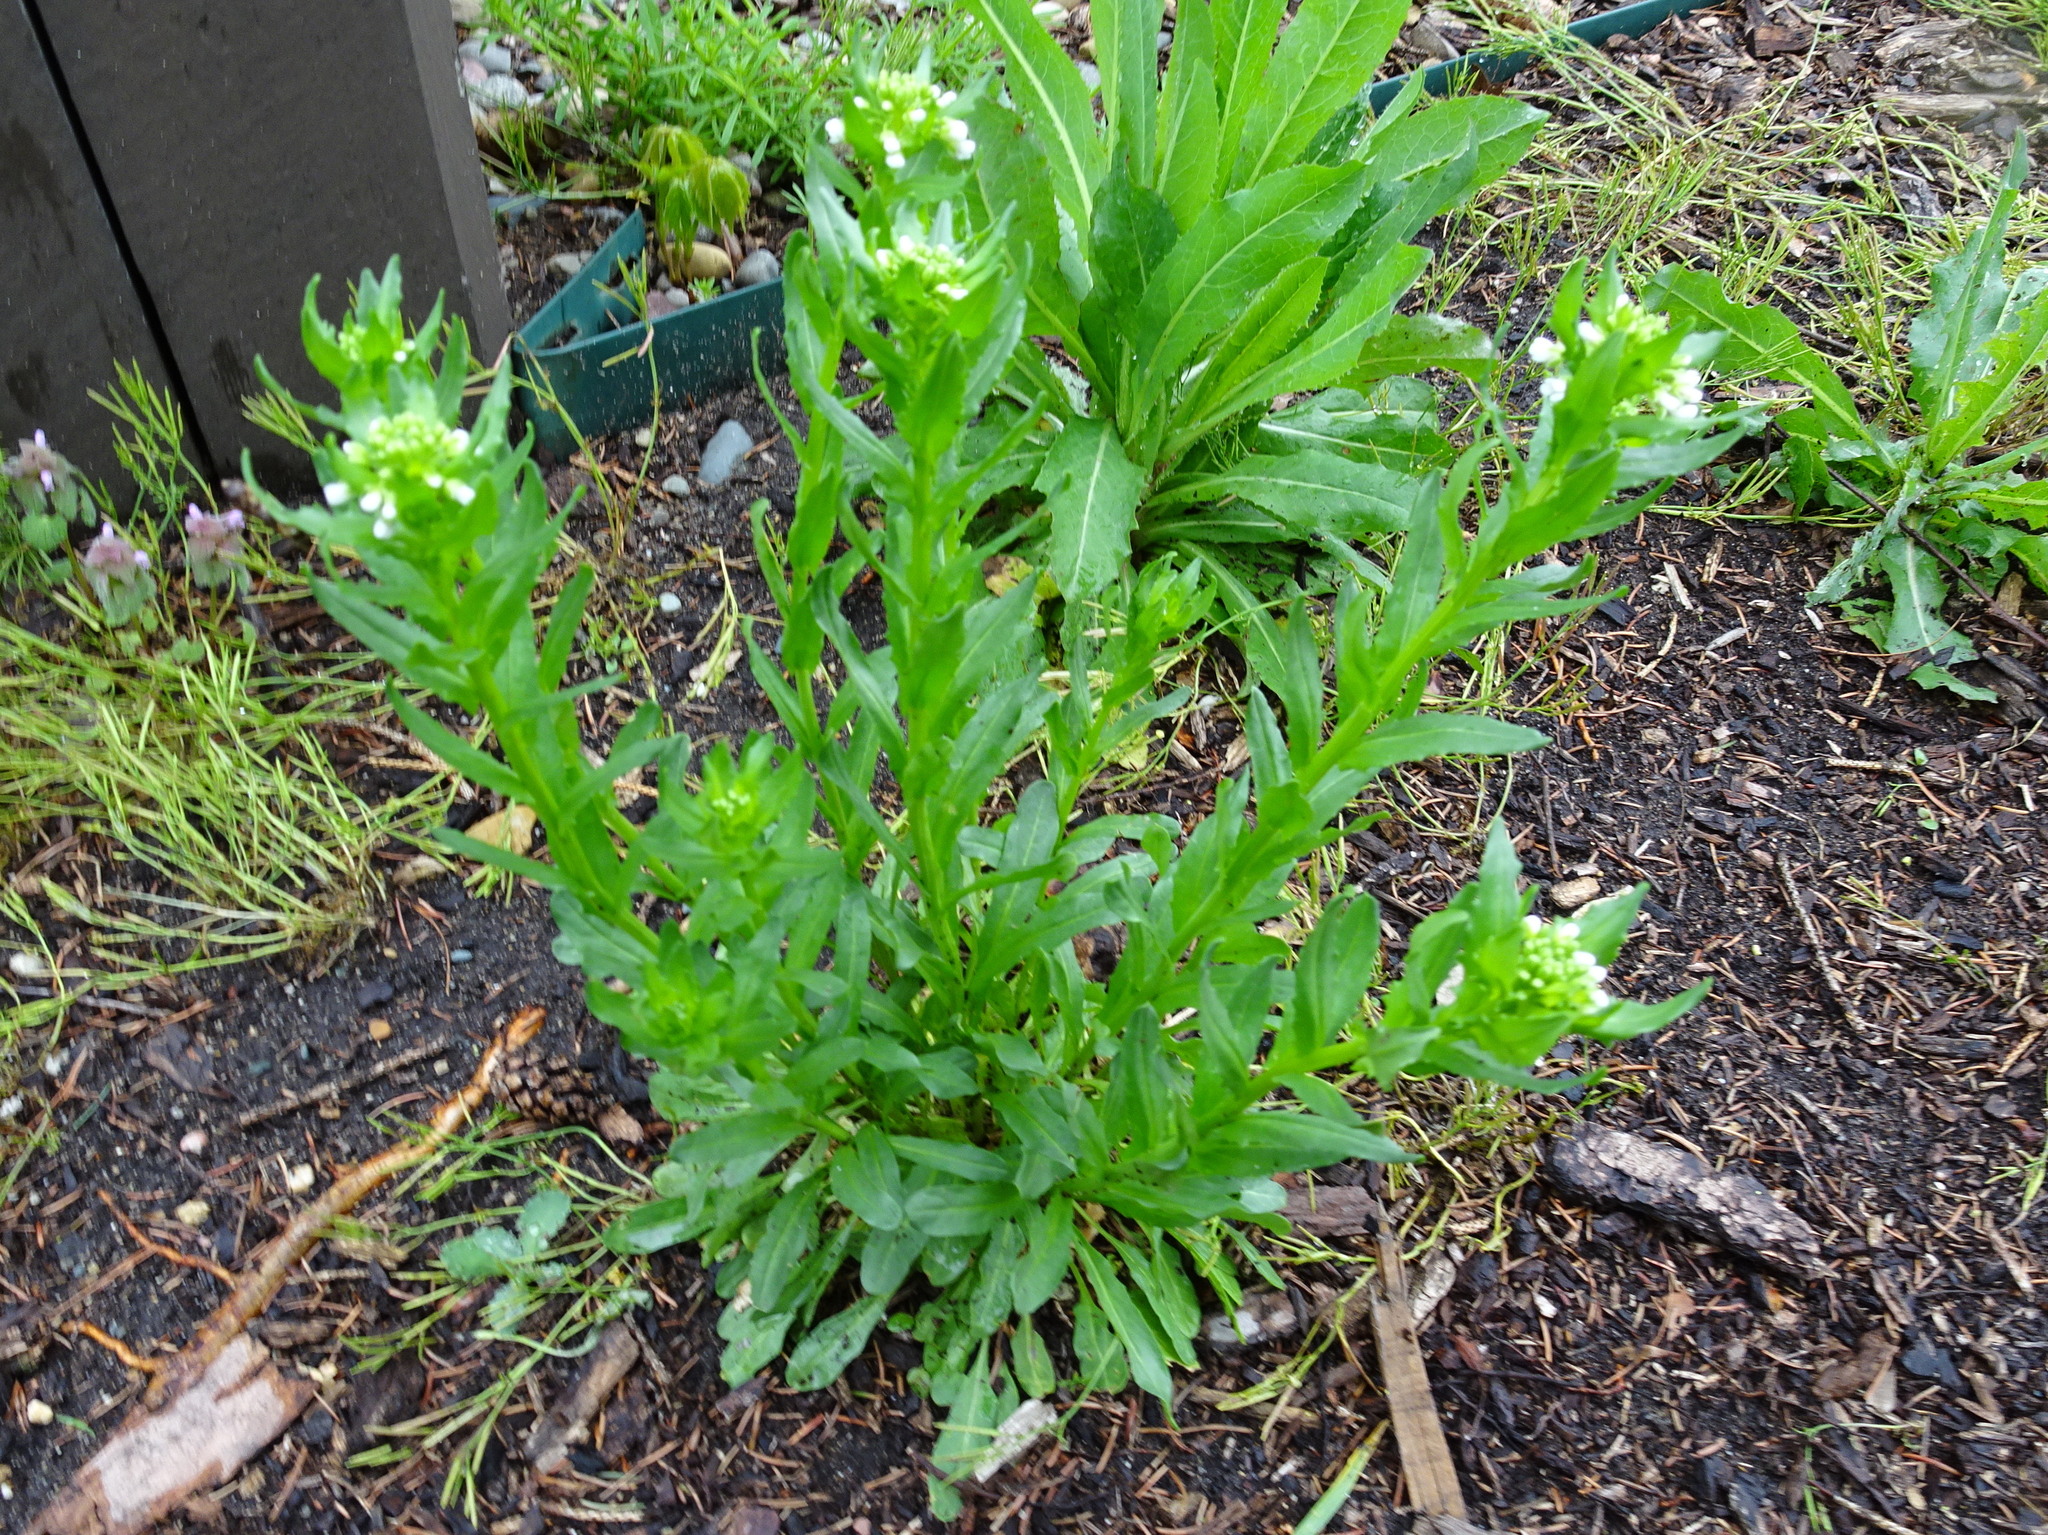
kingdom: Plantae
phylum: Tracheophyta
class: Magnoliopsida
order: Brassicales
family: Brassicaceae
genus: Thlaspi
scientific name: Thlaspi arvense
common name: Field pennycress
